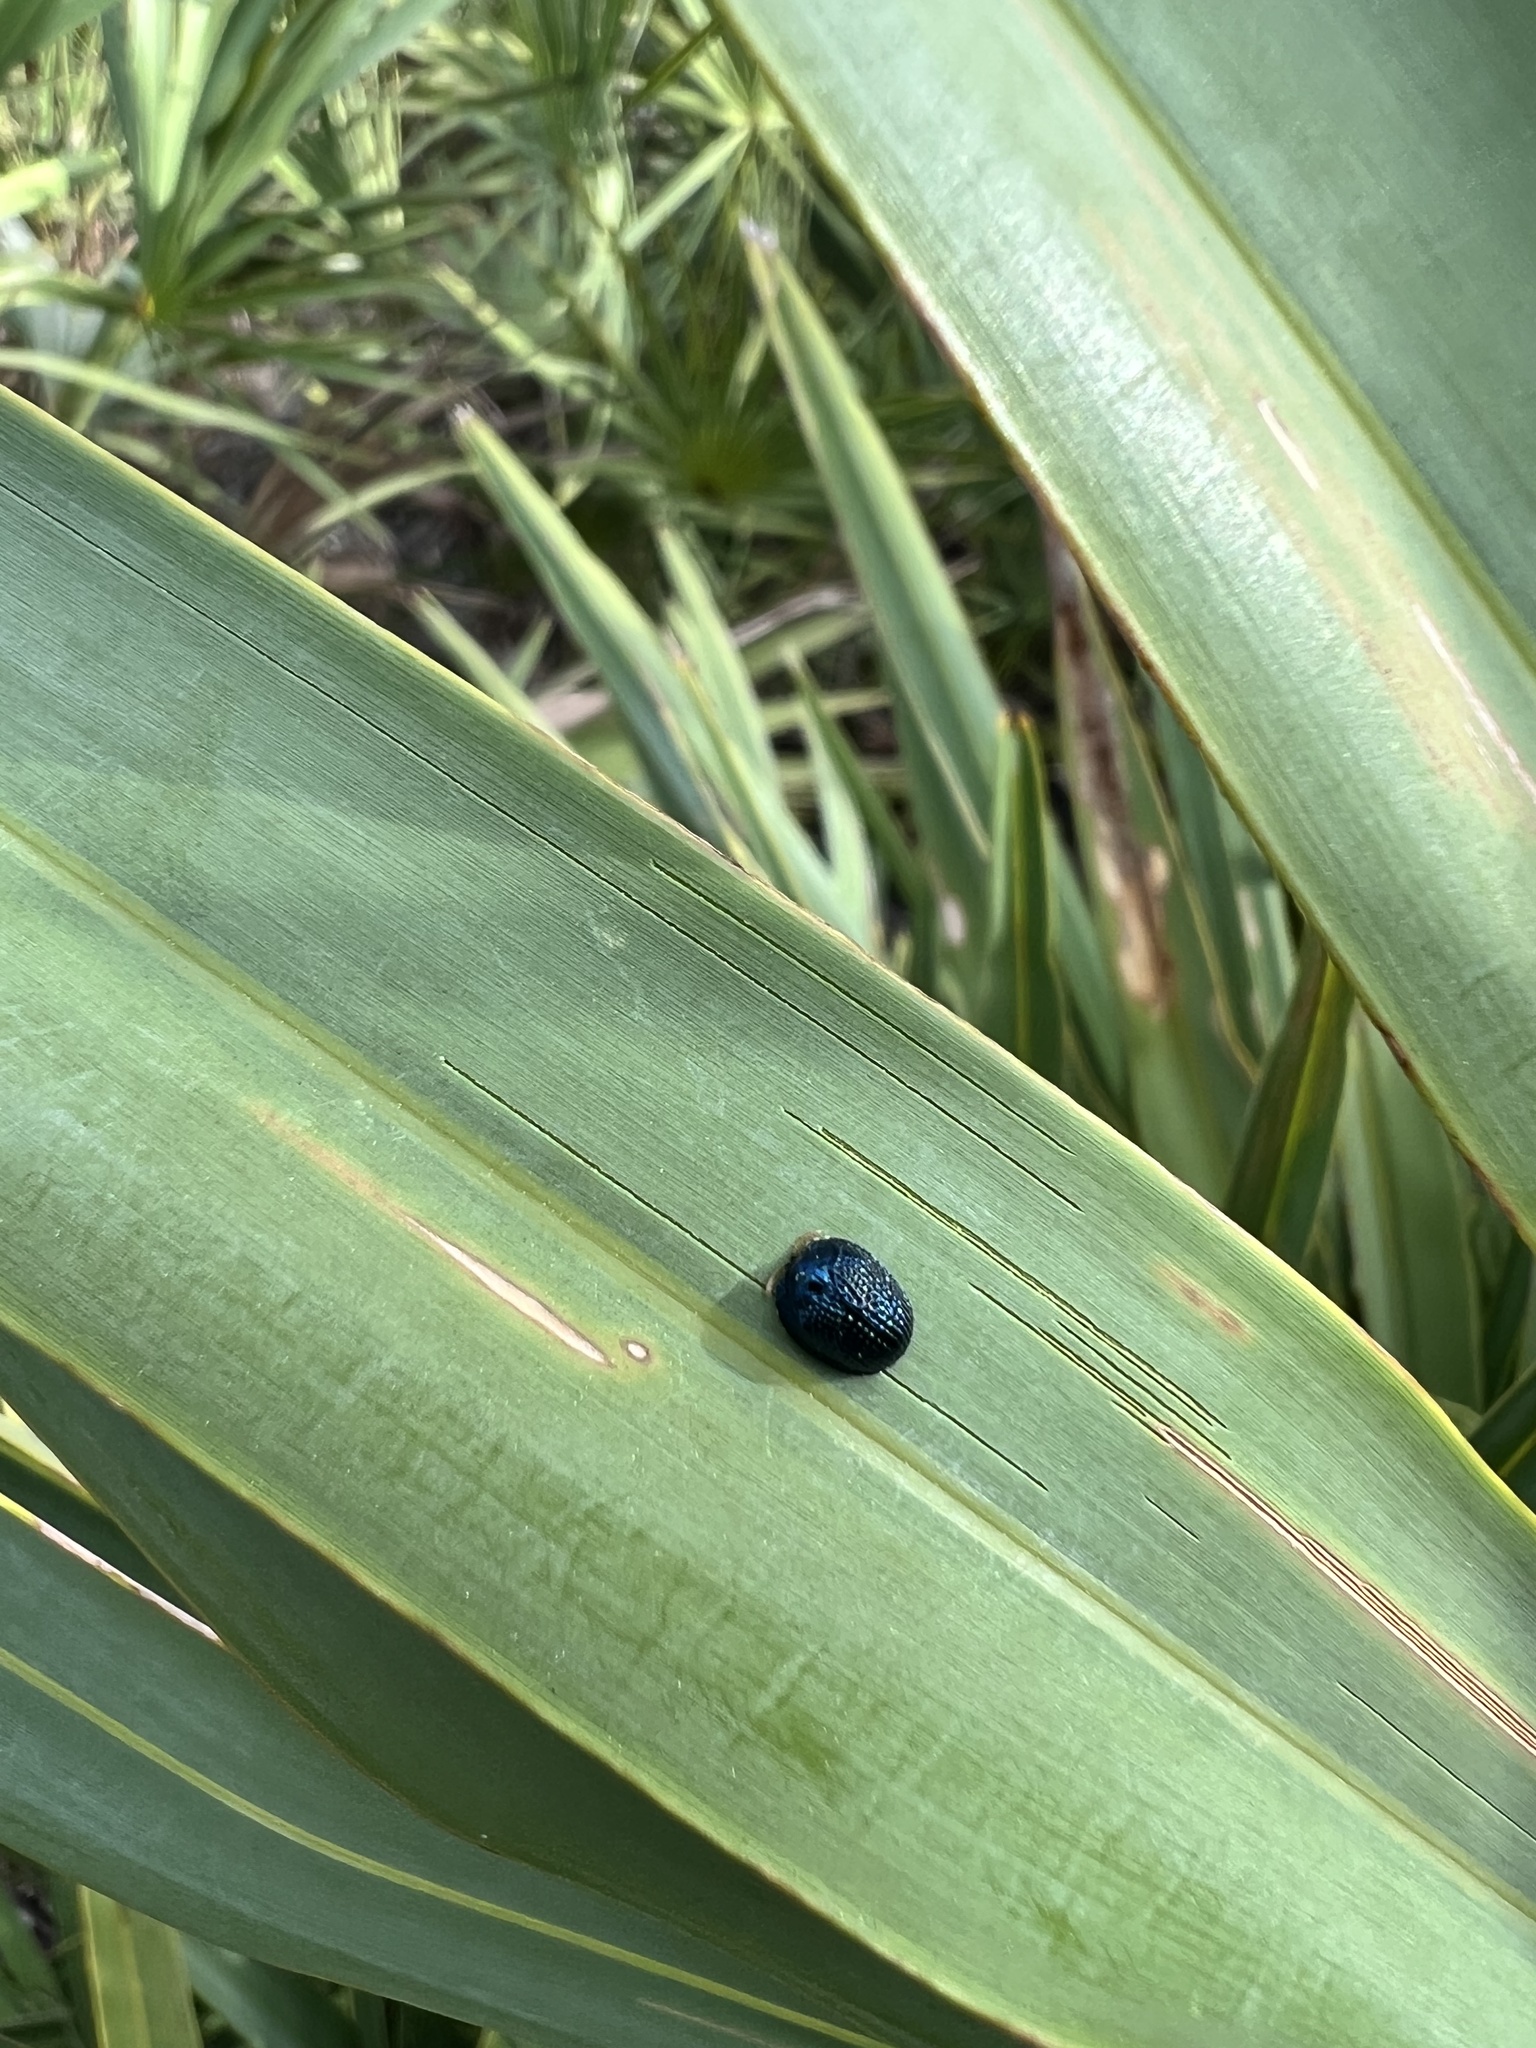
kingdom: Animalia
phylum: Arthropoda
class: Insecta
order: Coleoptera
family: Chrysomelidae
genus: Hemisphaerota
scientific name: Hemisphaerota cyanea
